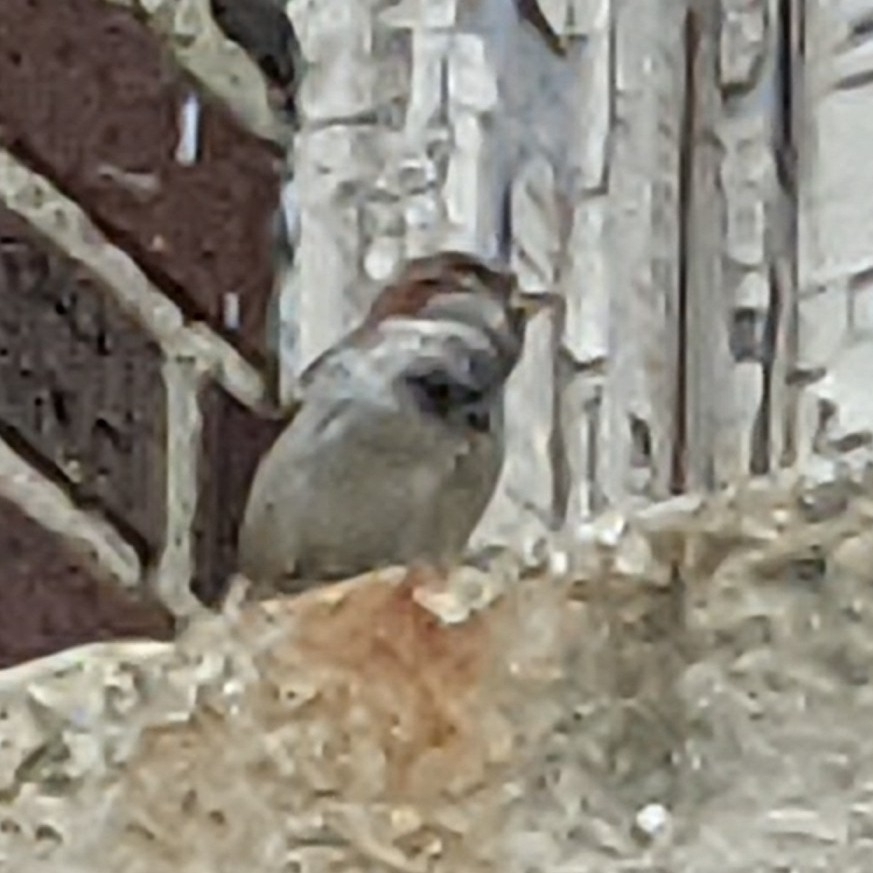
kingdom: Animalia
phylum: Chordata
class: Aves
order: Passeriformes
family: Passeridae
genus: Passer
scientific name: Passer domesticus
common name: House sparrow
